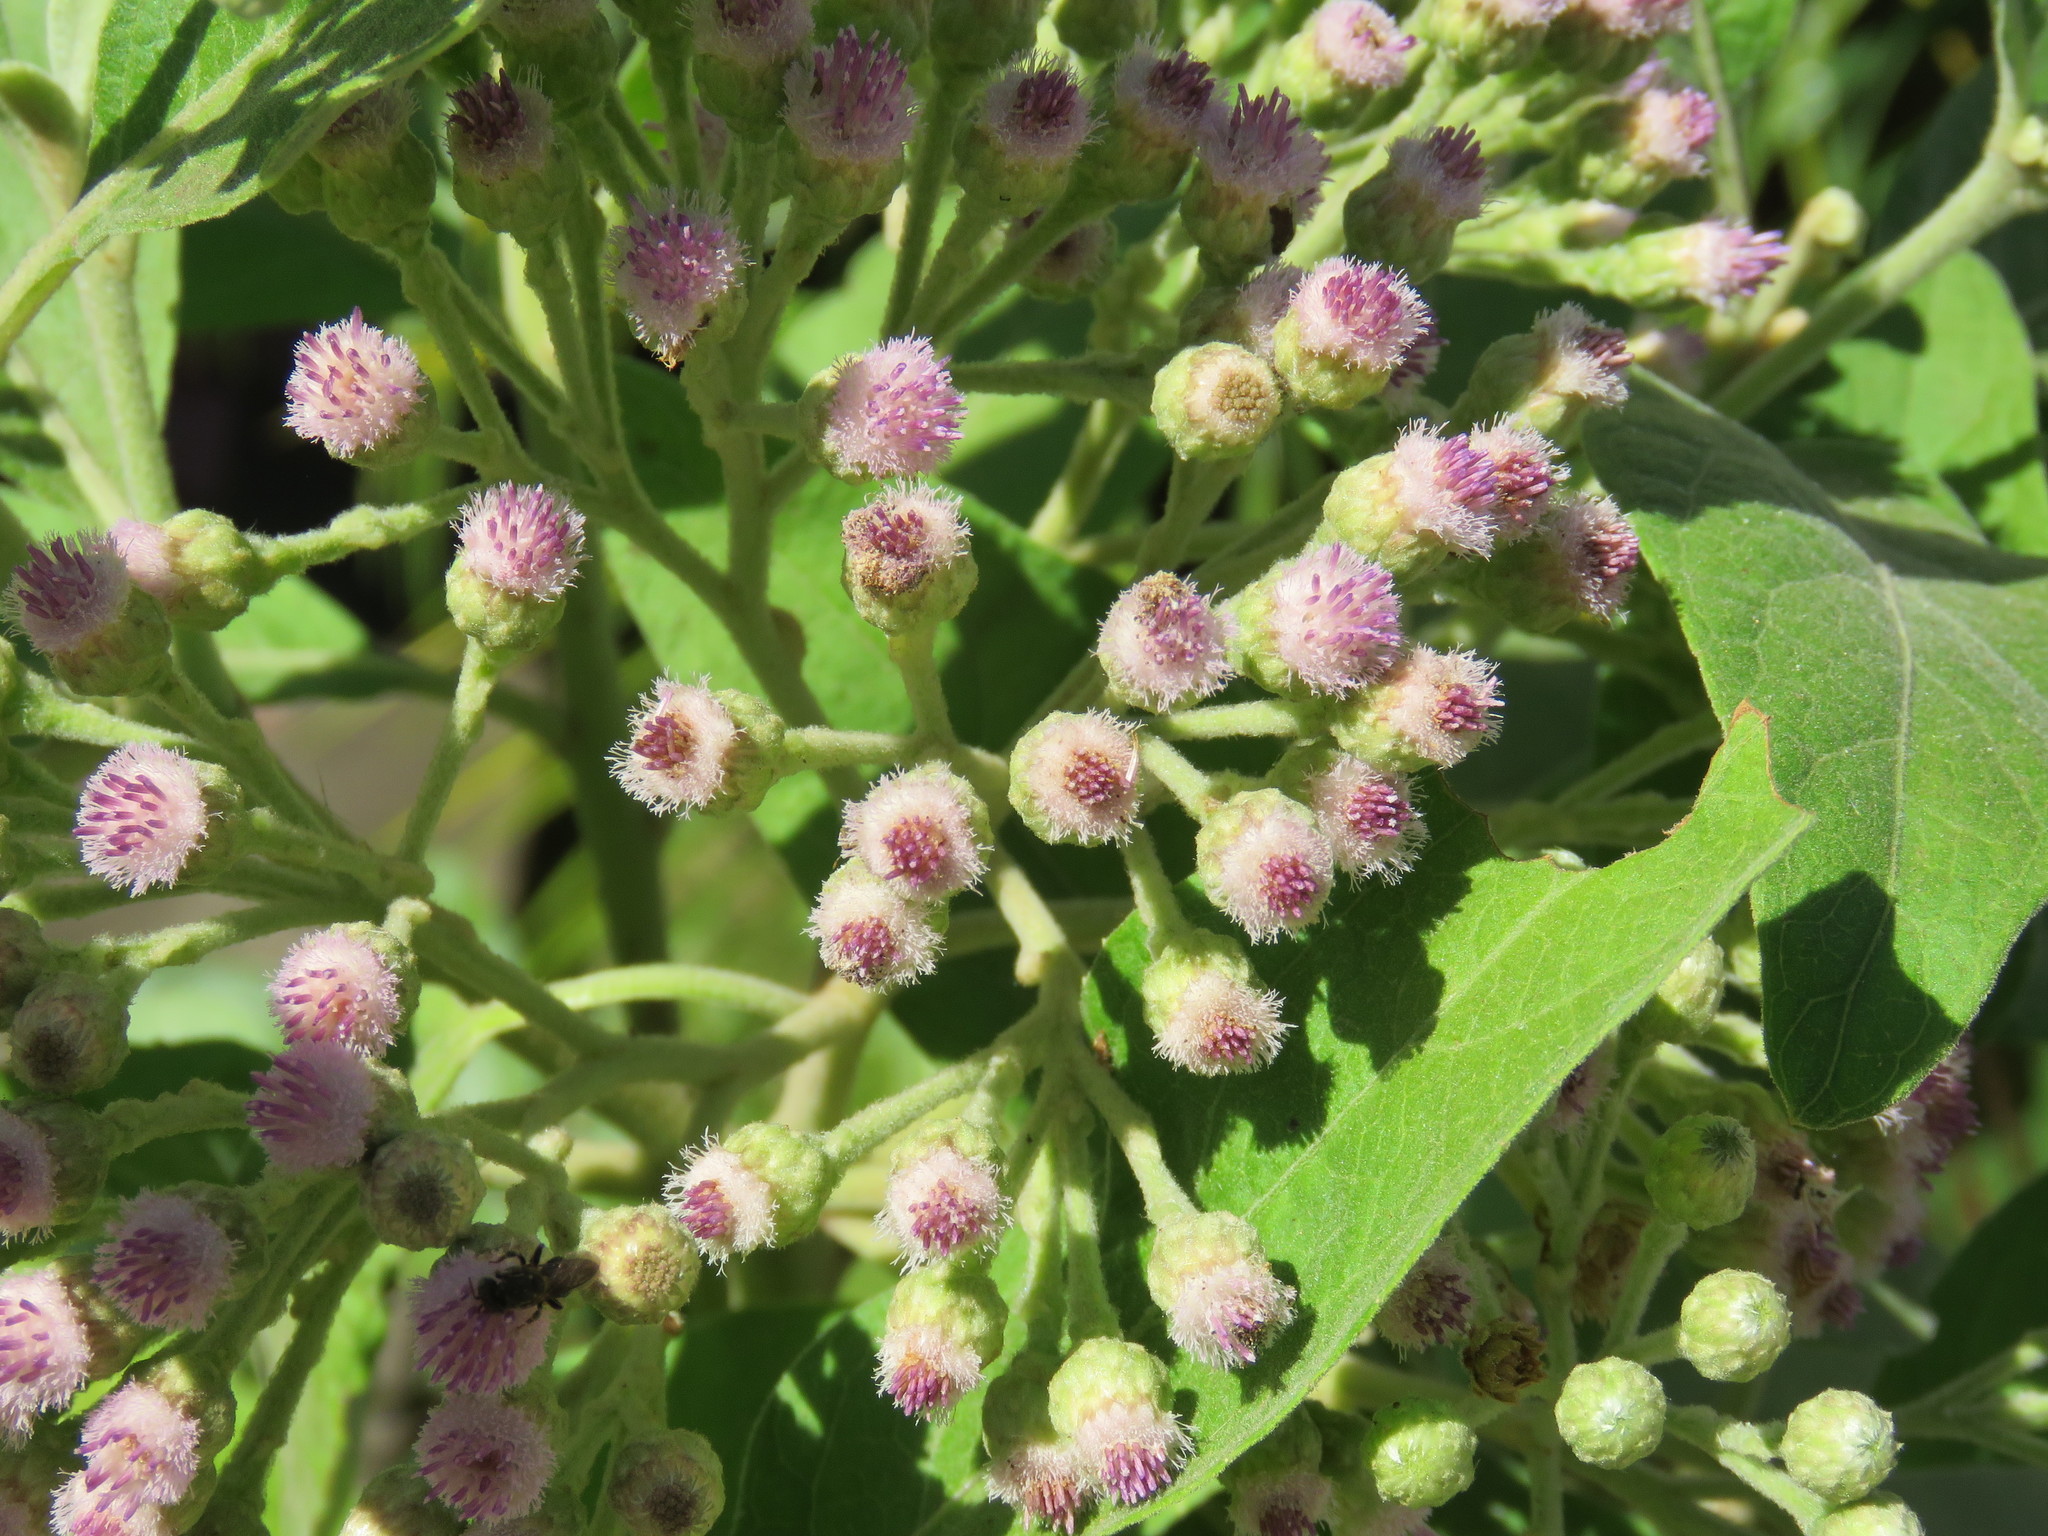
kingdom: Plantae
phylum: Tracheophyta
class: Magnoliopsida
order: Asterales
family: Asteraceae
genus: Pluchea
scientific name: Pluchea carolinensis
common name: Marsh fleabane
